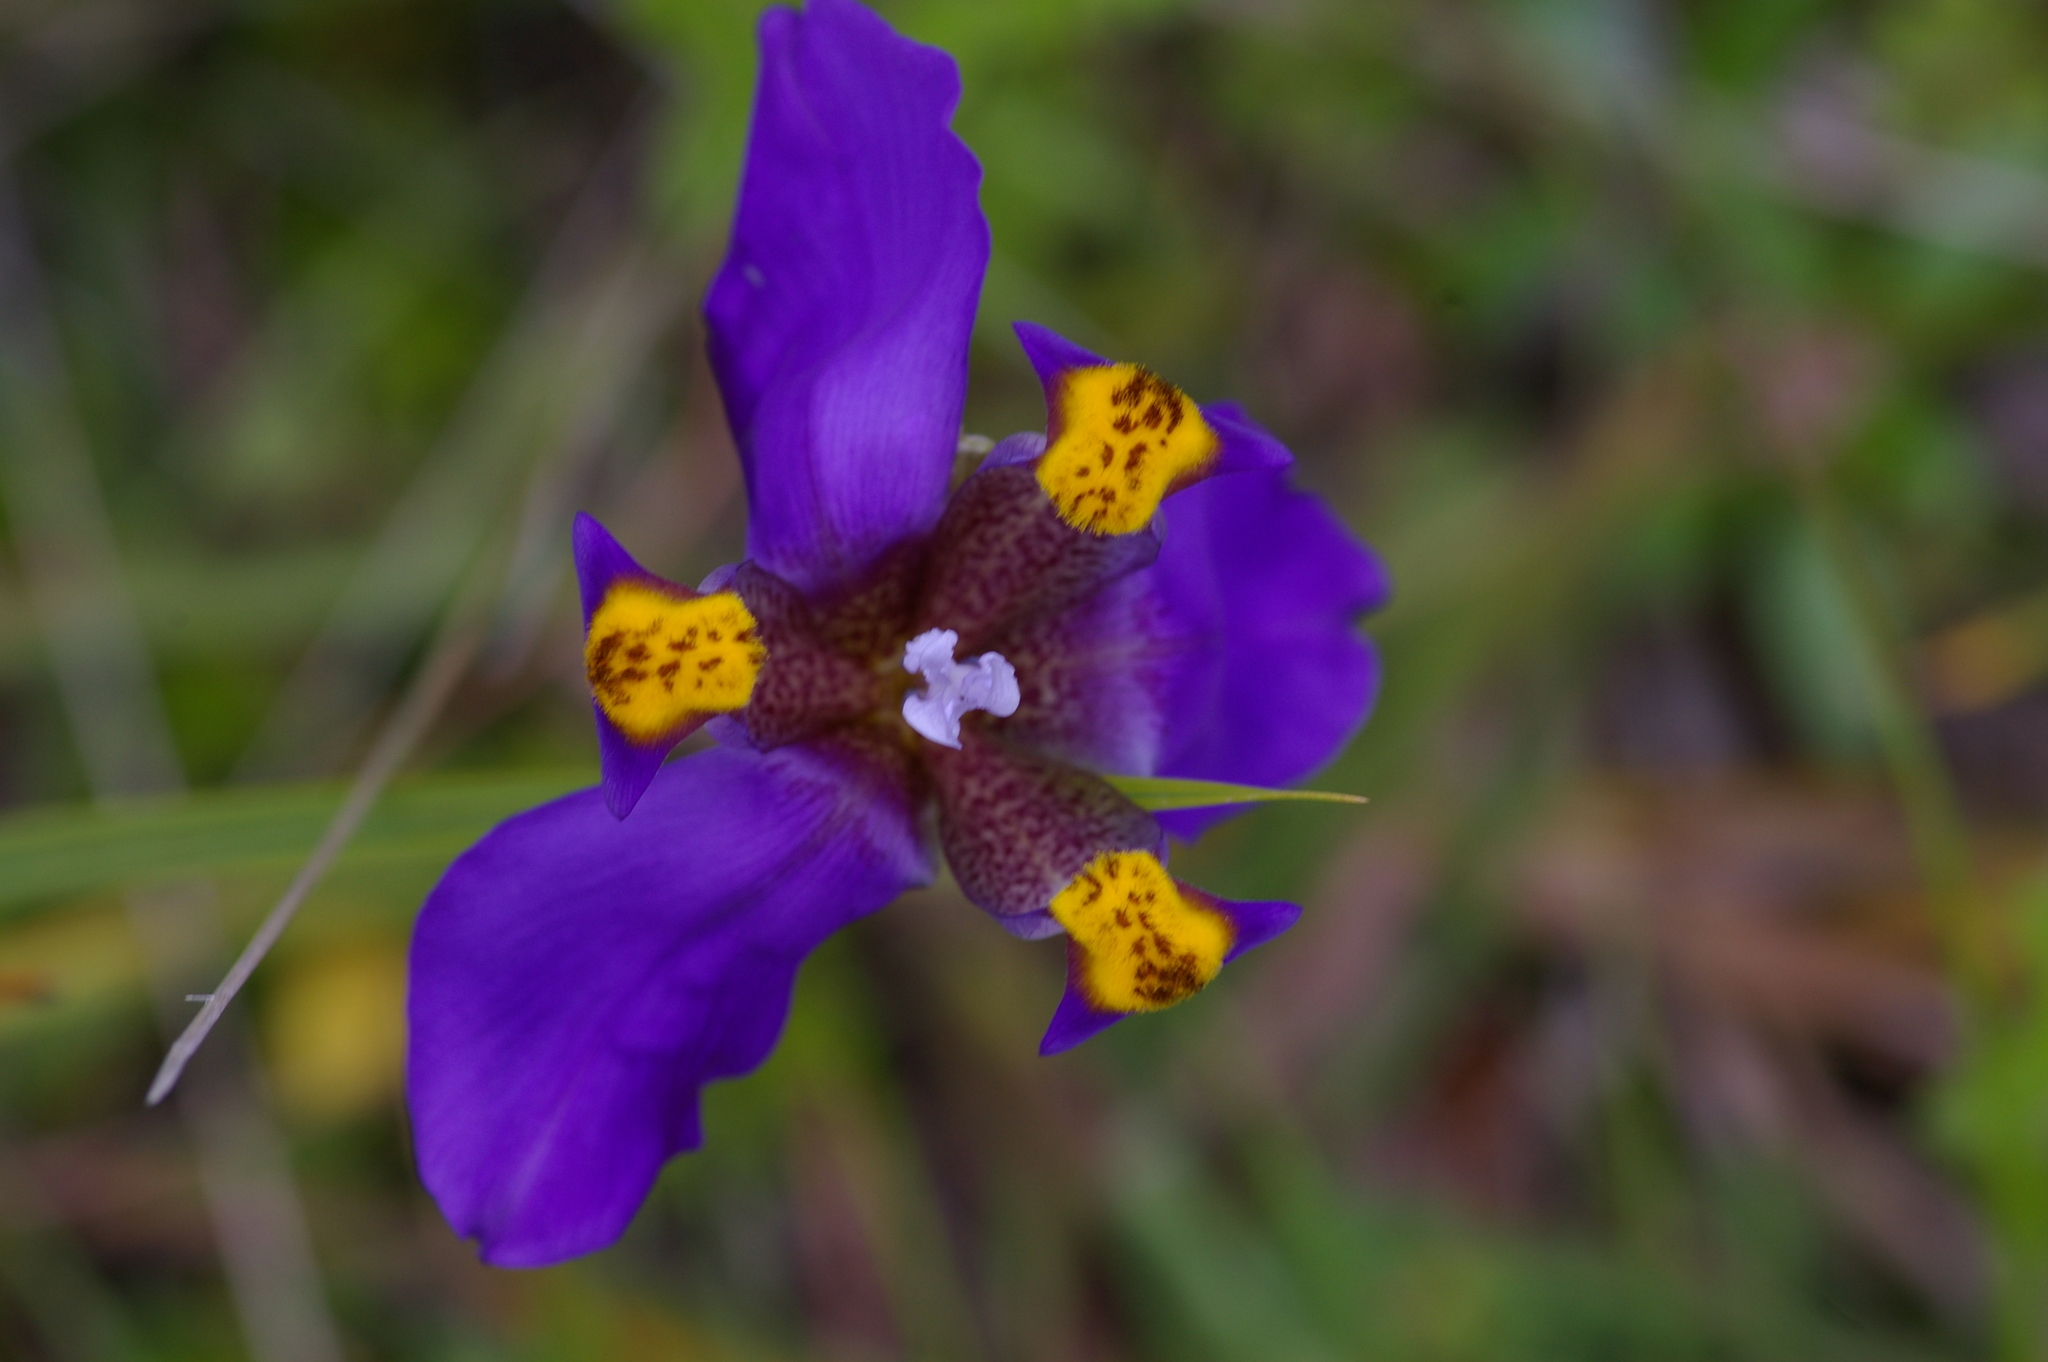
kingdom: Plantae
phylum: Tracheophyta
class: Liliopsida
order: Asparagales
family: Iridaceae
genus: Hesperoxiphion
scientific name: Hesperoxiphion herrerae
